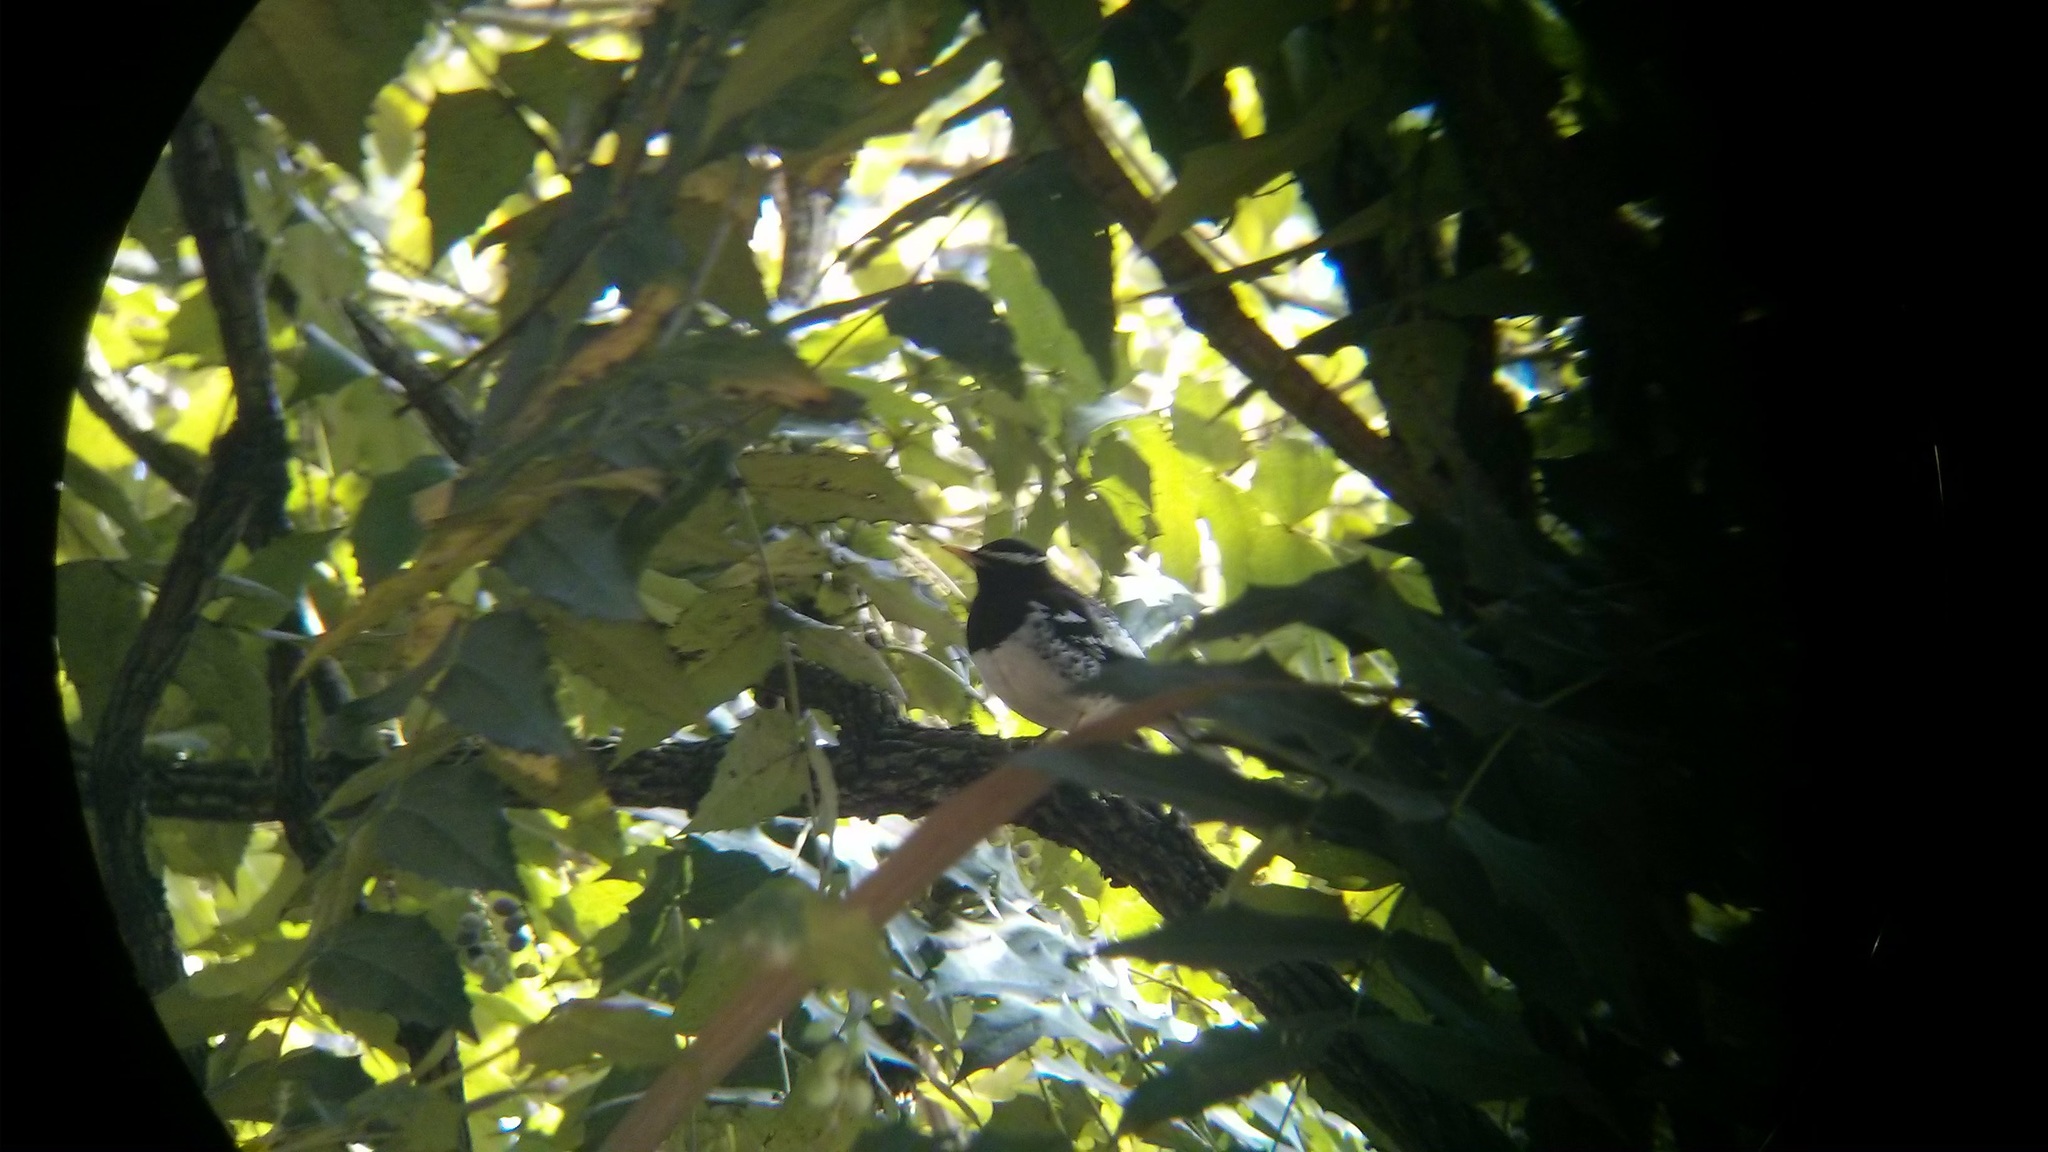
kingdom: Animalia
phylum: Chordata
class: Aves
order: Passeriformes
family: Turdidae
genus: Geokichla
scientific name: Geokichla wardii
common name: Pied thrush
